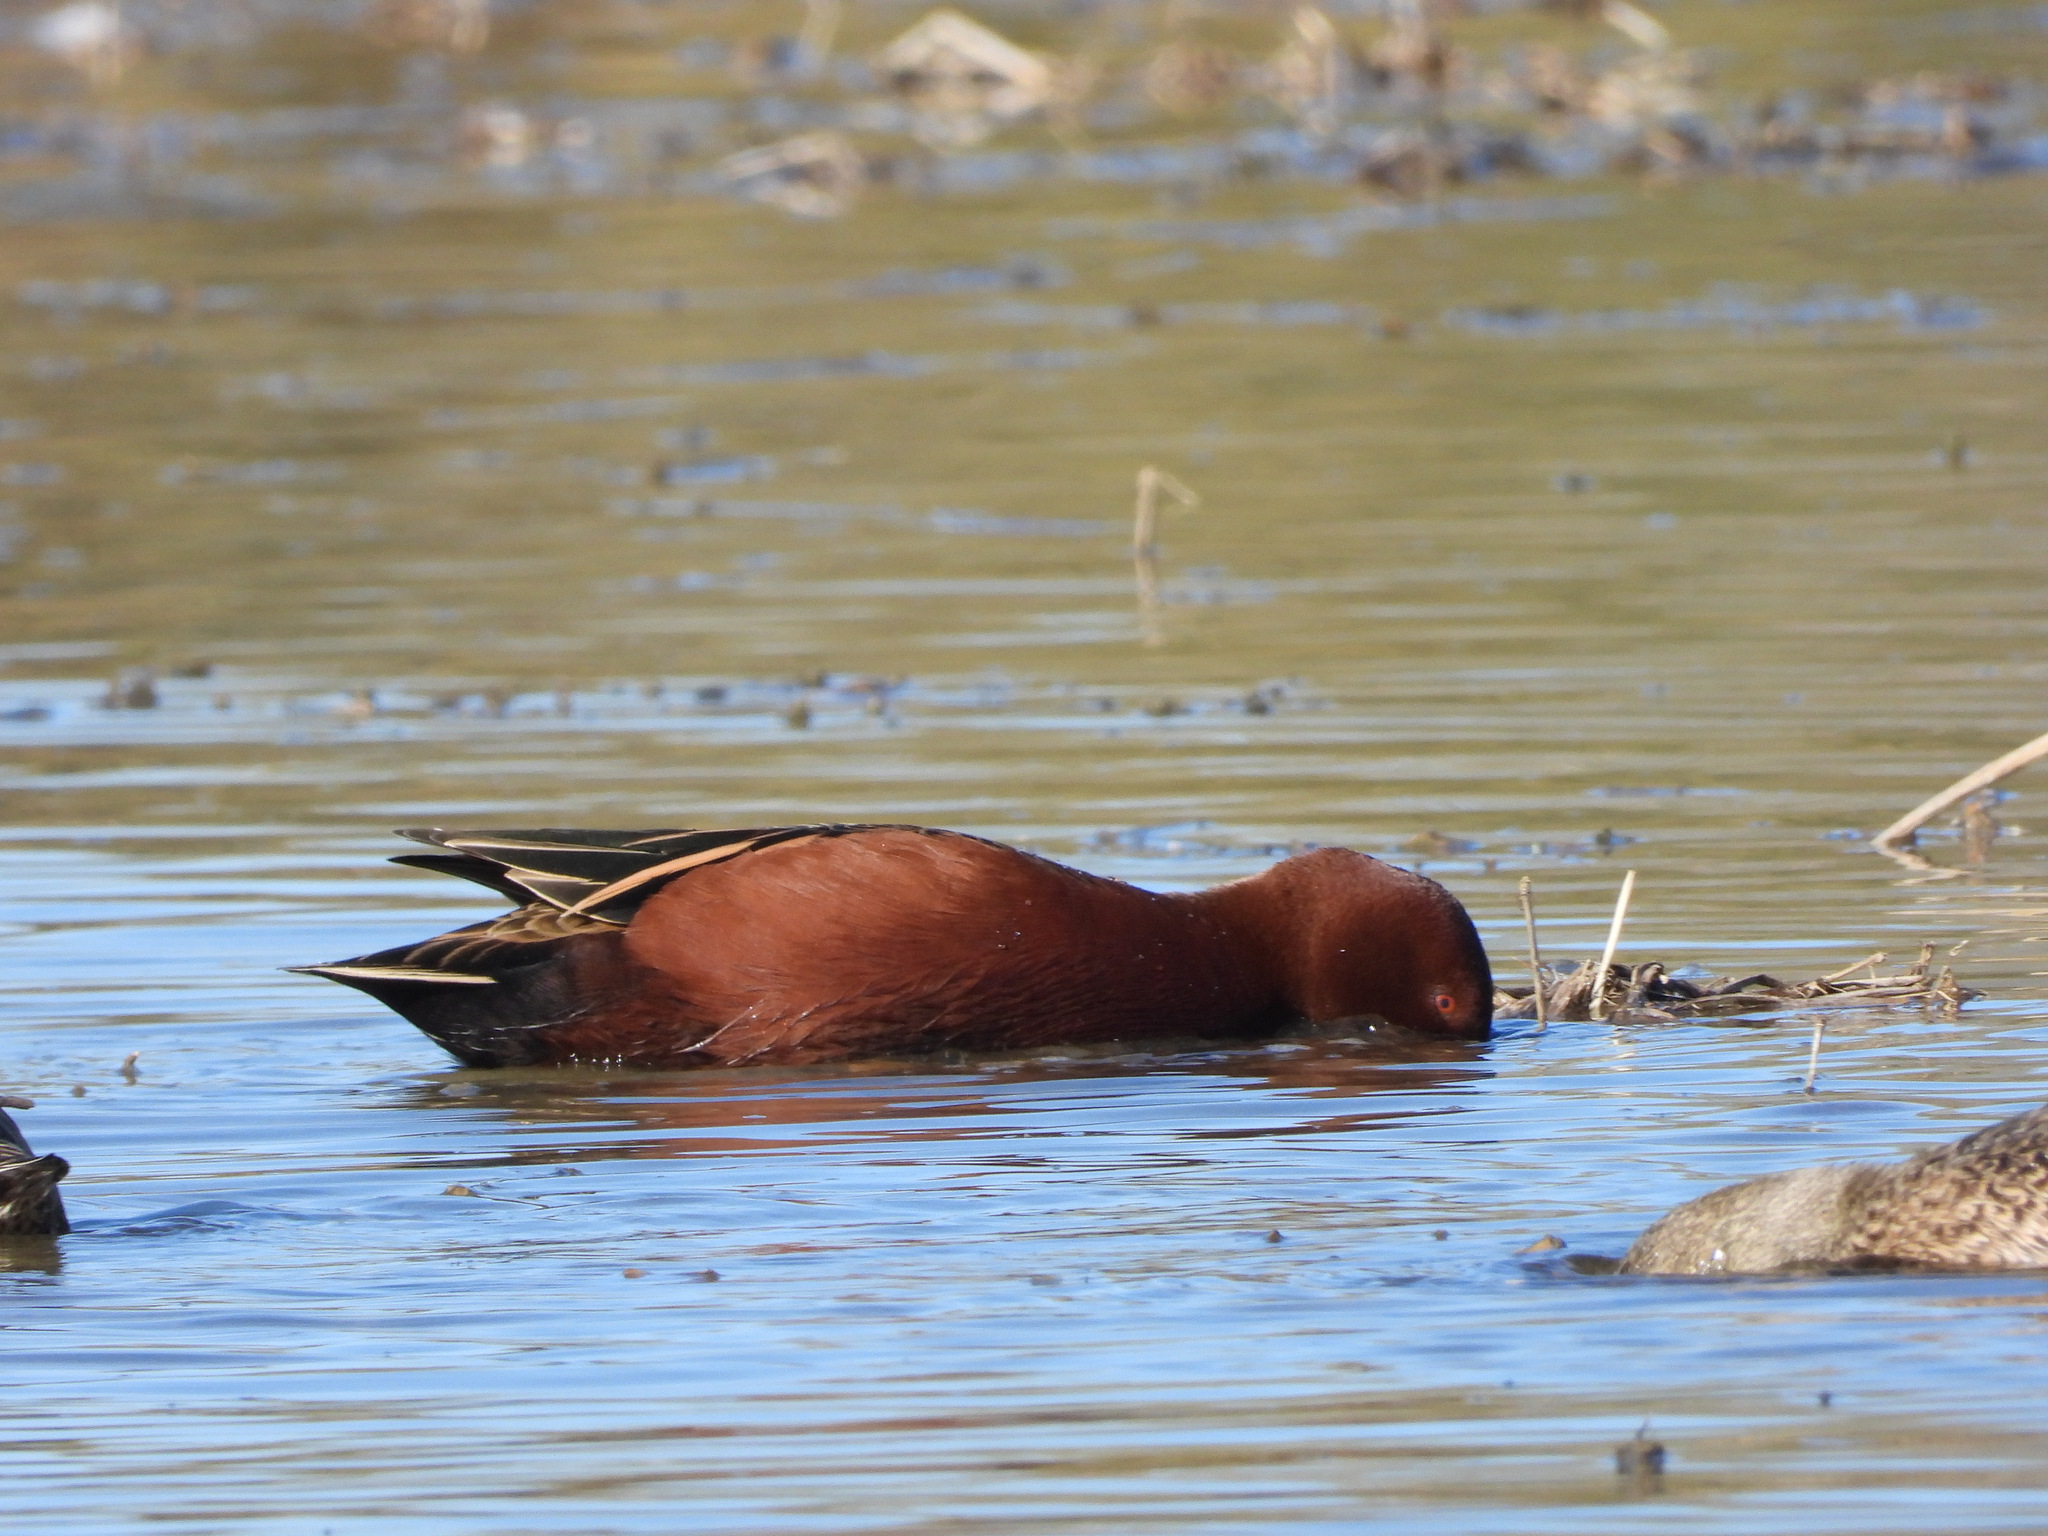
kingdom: Animalia
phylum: Chordata
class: Aves
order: Anseriformes
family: Anatidae
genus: Spatula
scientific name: Spatula cyanoptera
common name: Cinnamon teal
